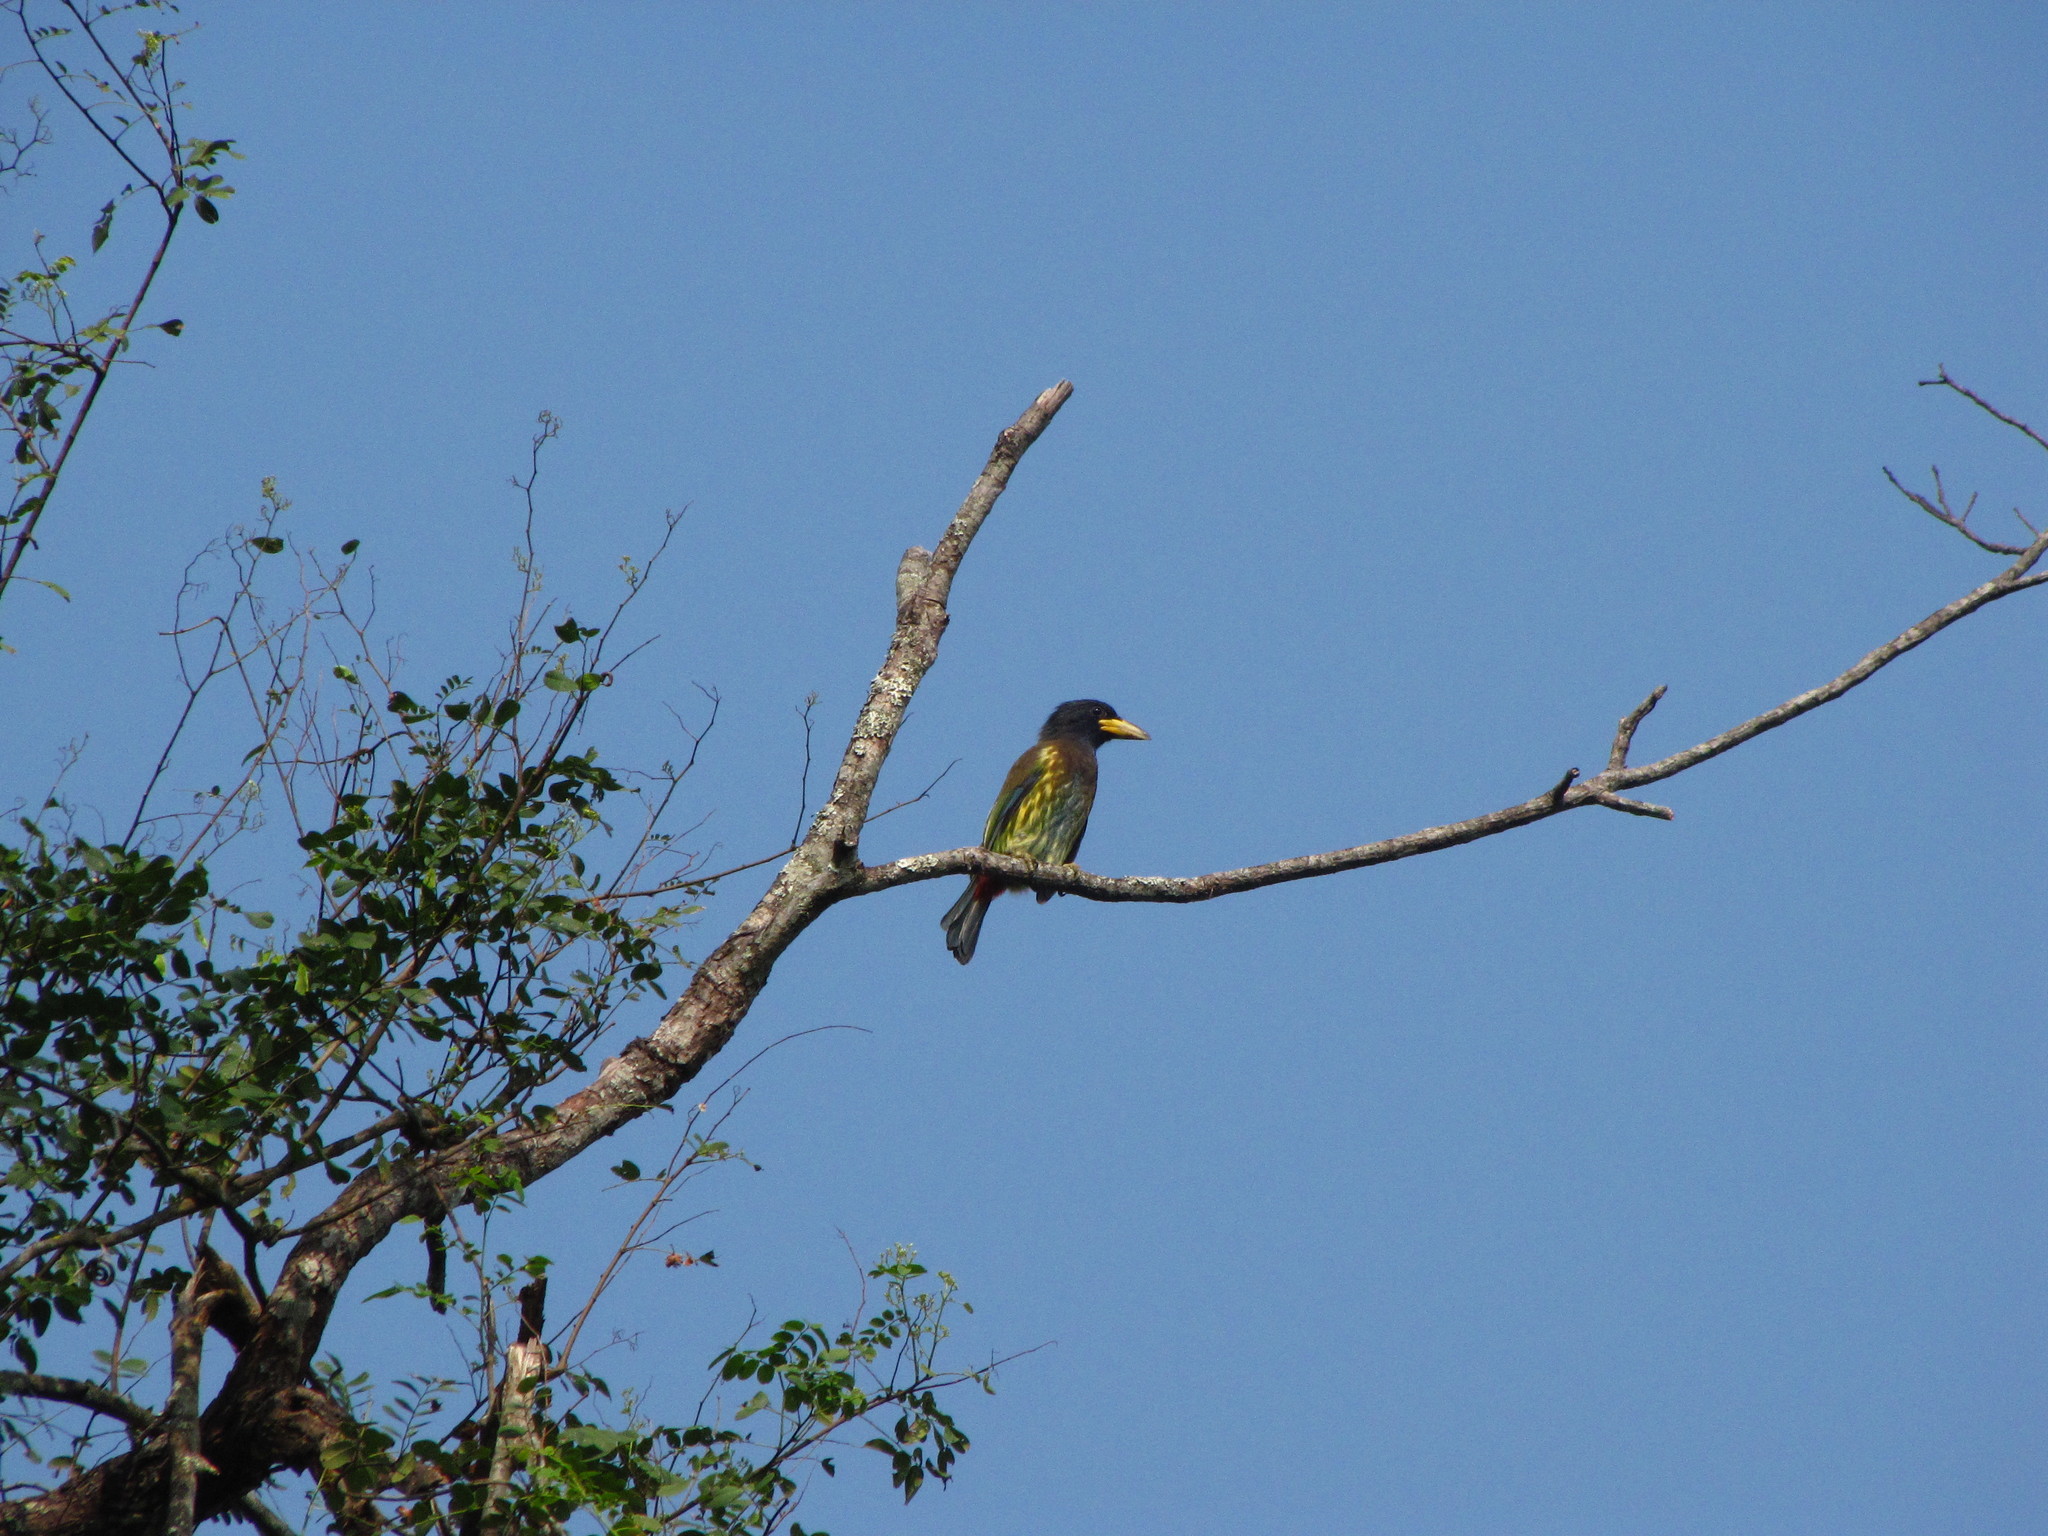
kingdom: Animalia
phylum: Chordata
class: Aves
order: Piciformes
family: Megalaimidae
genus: Psilopogon
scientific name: Psilopogon virens
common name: Great barbet
